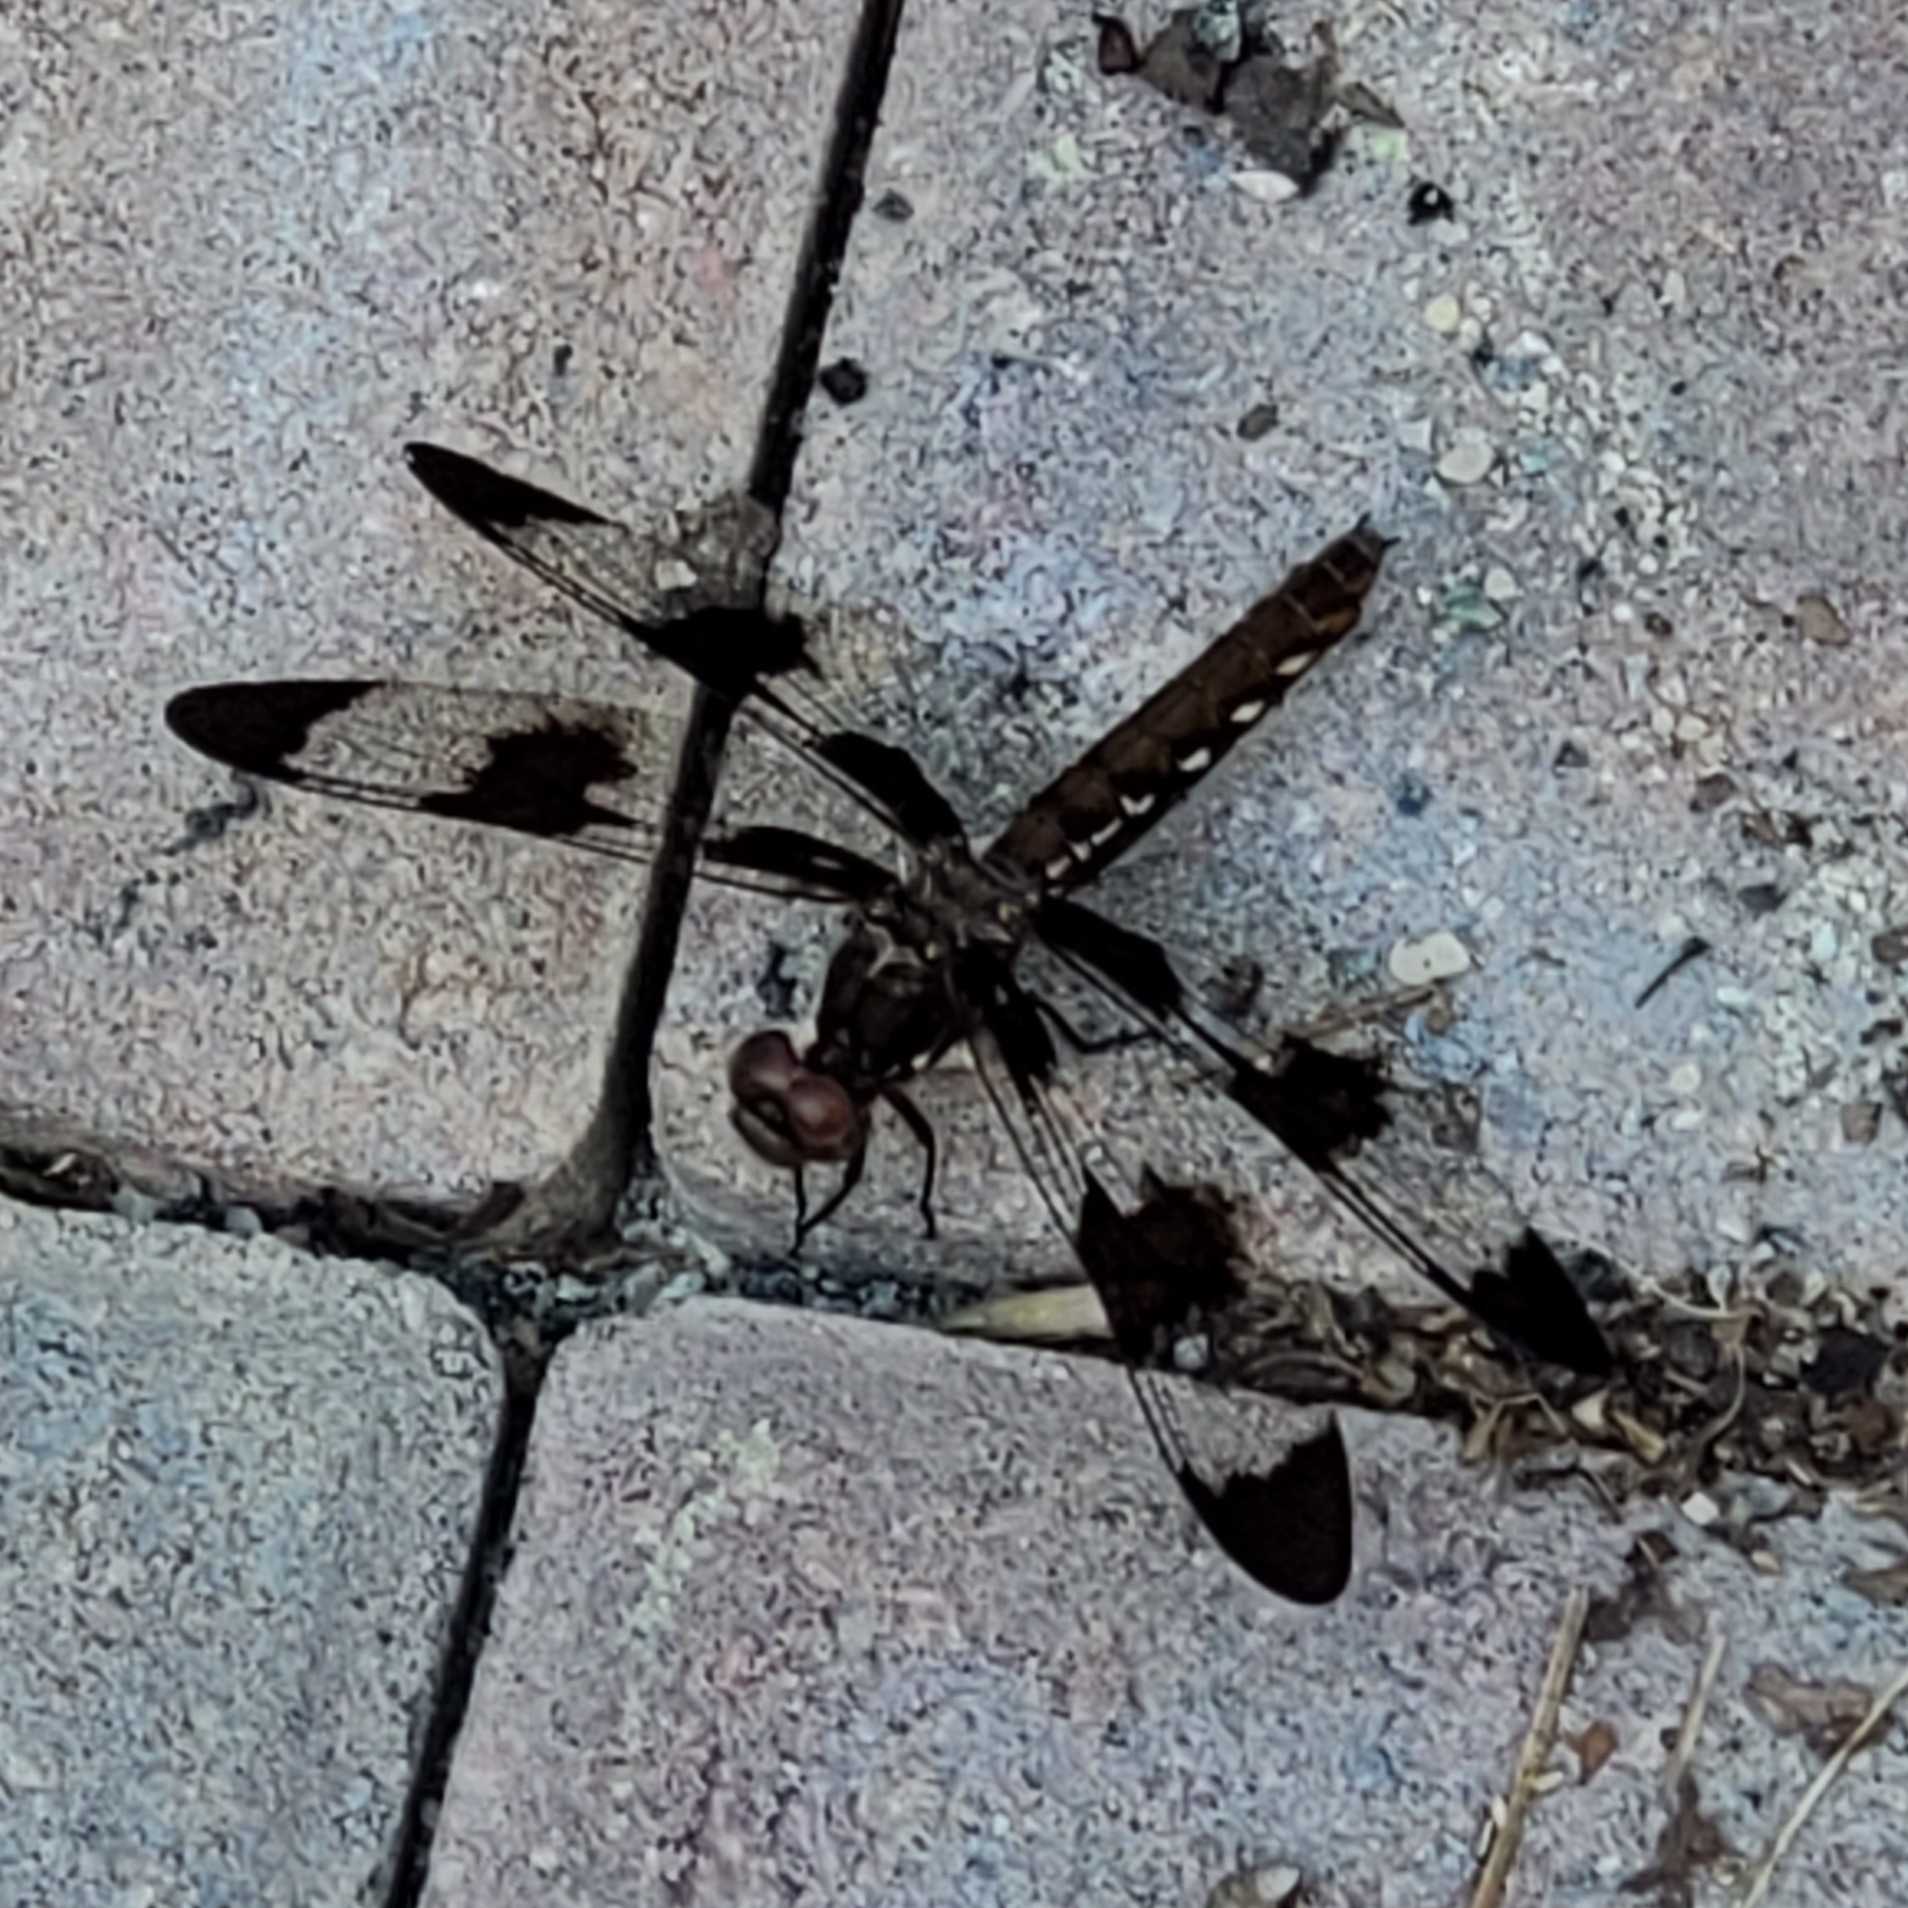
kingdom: Animalia
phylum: Arthropoda
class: Insecta
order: Odonata
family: Libellulidae
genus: Plathemis
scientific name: Plathemis lydia
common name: Common whitetail
